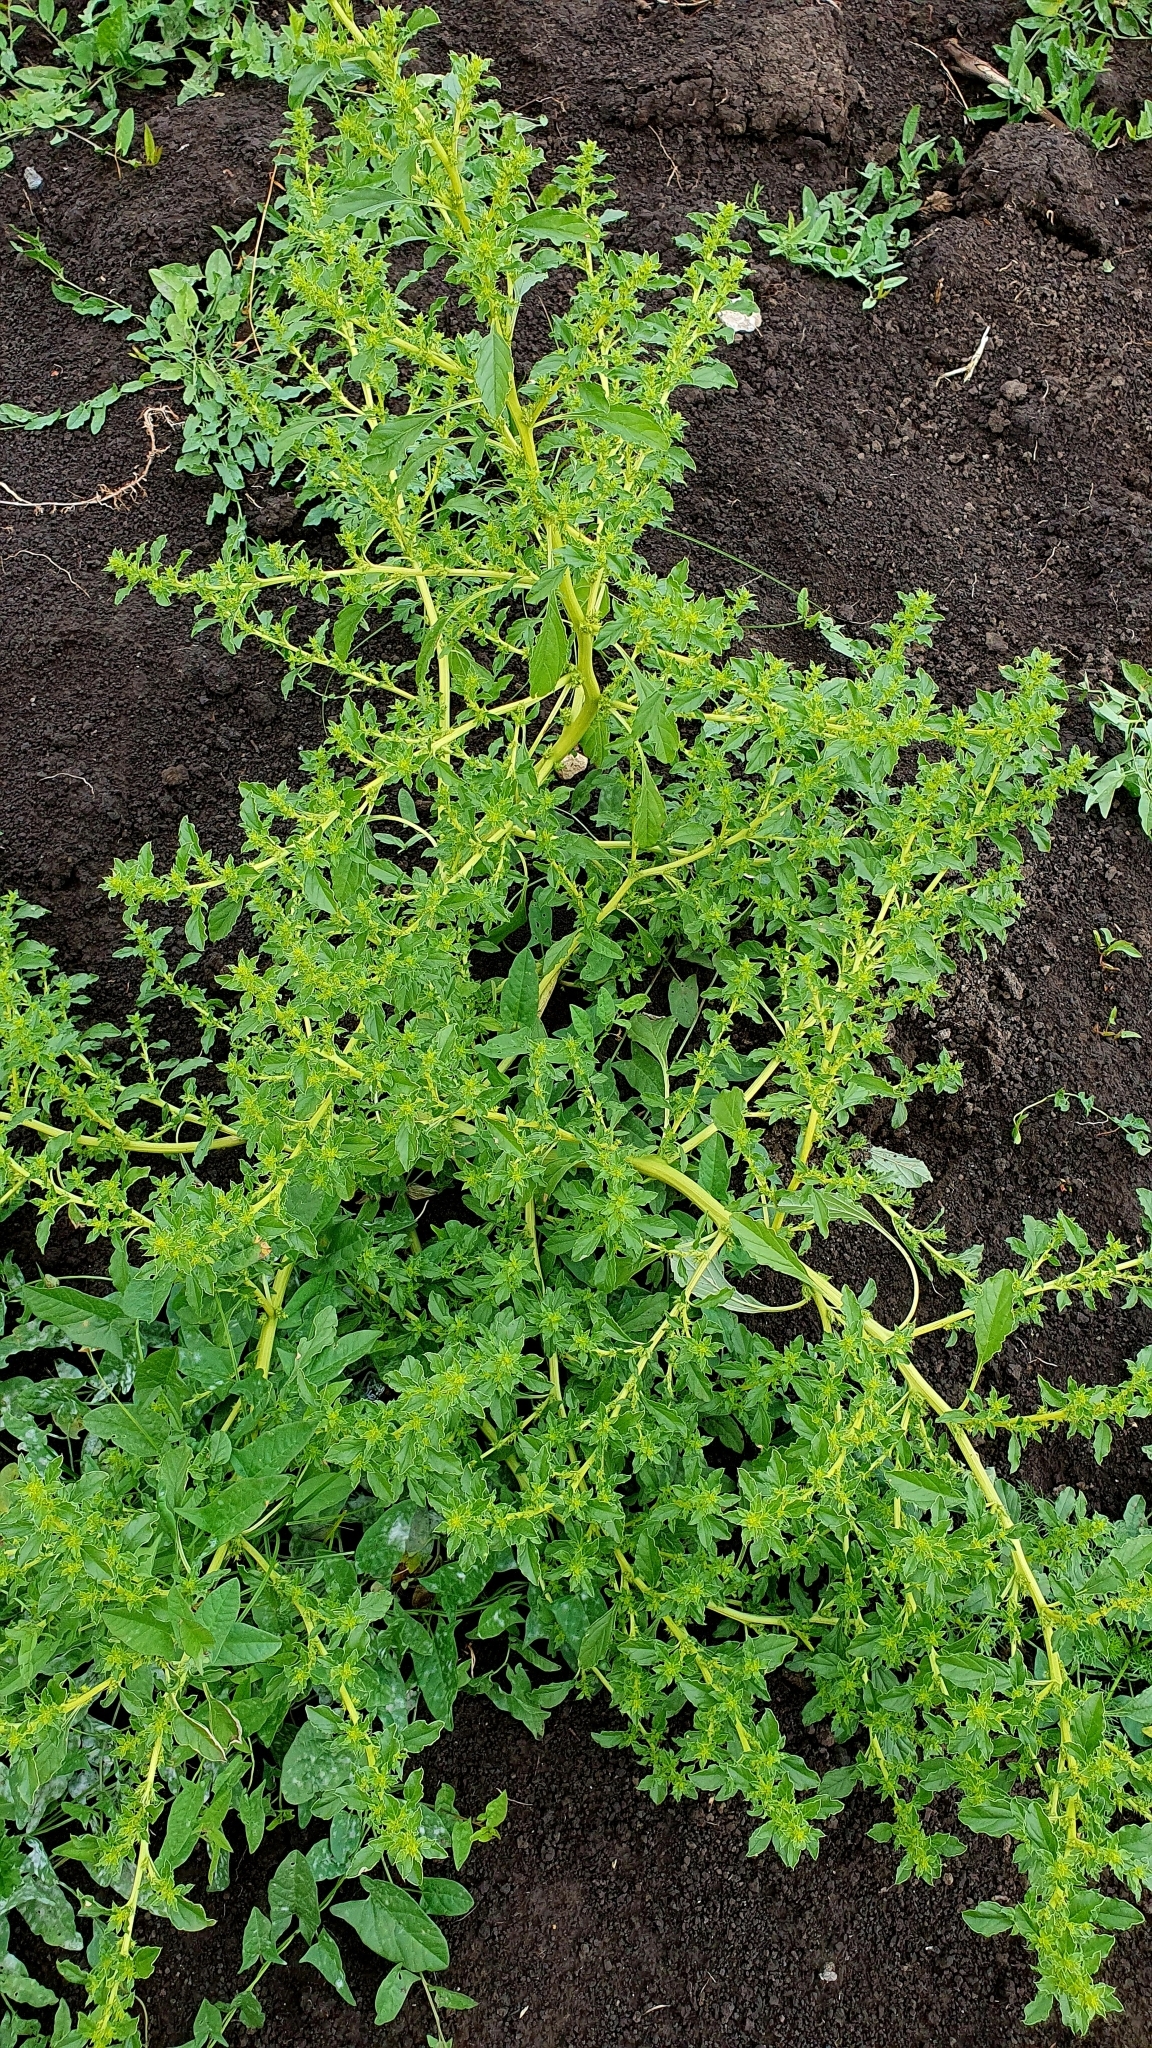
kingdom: Plantae
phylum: Tracheophyta
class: Magnoliopsida
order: Caryophyllales
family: Amaranthaceae
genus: Amaranthus
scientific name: Amaranthus albus
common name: White pigweed
